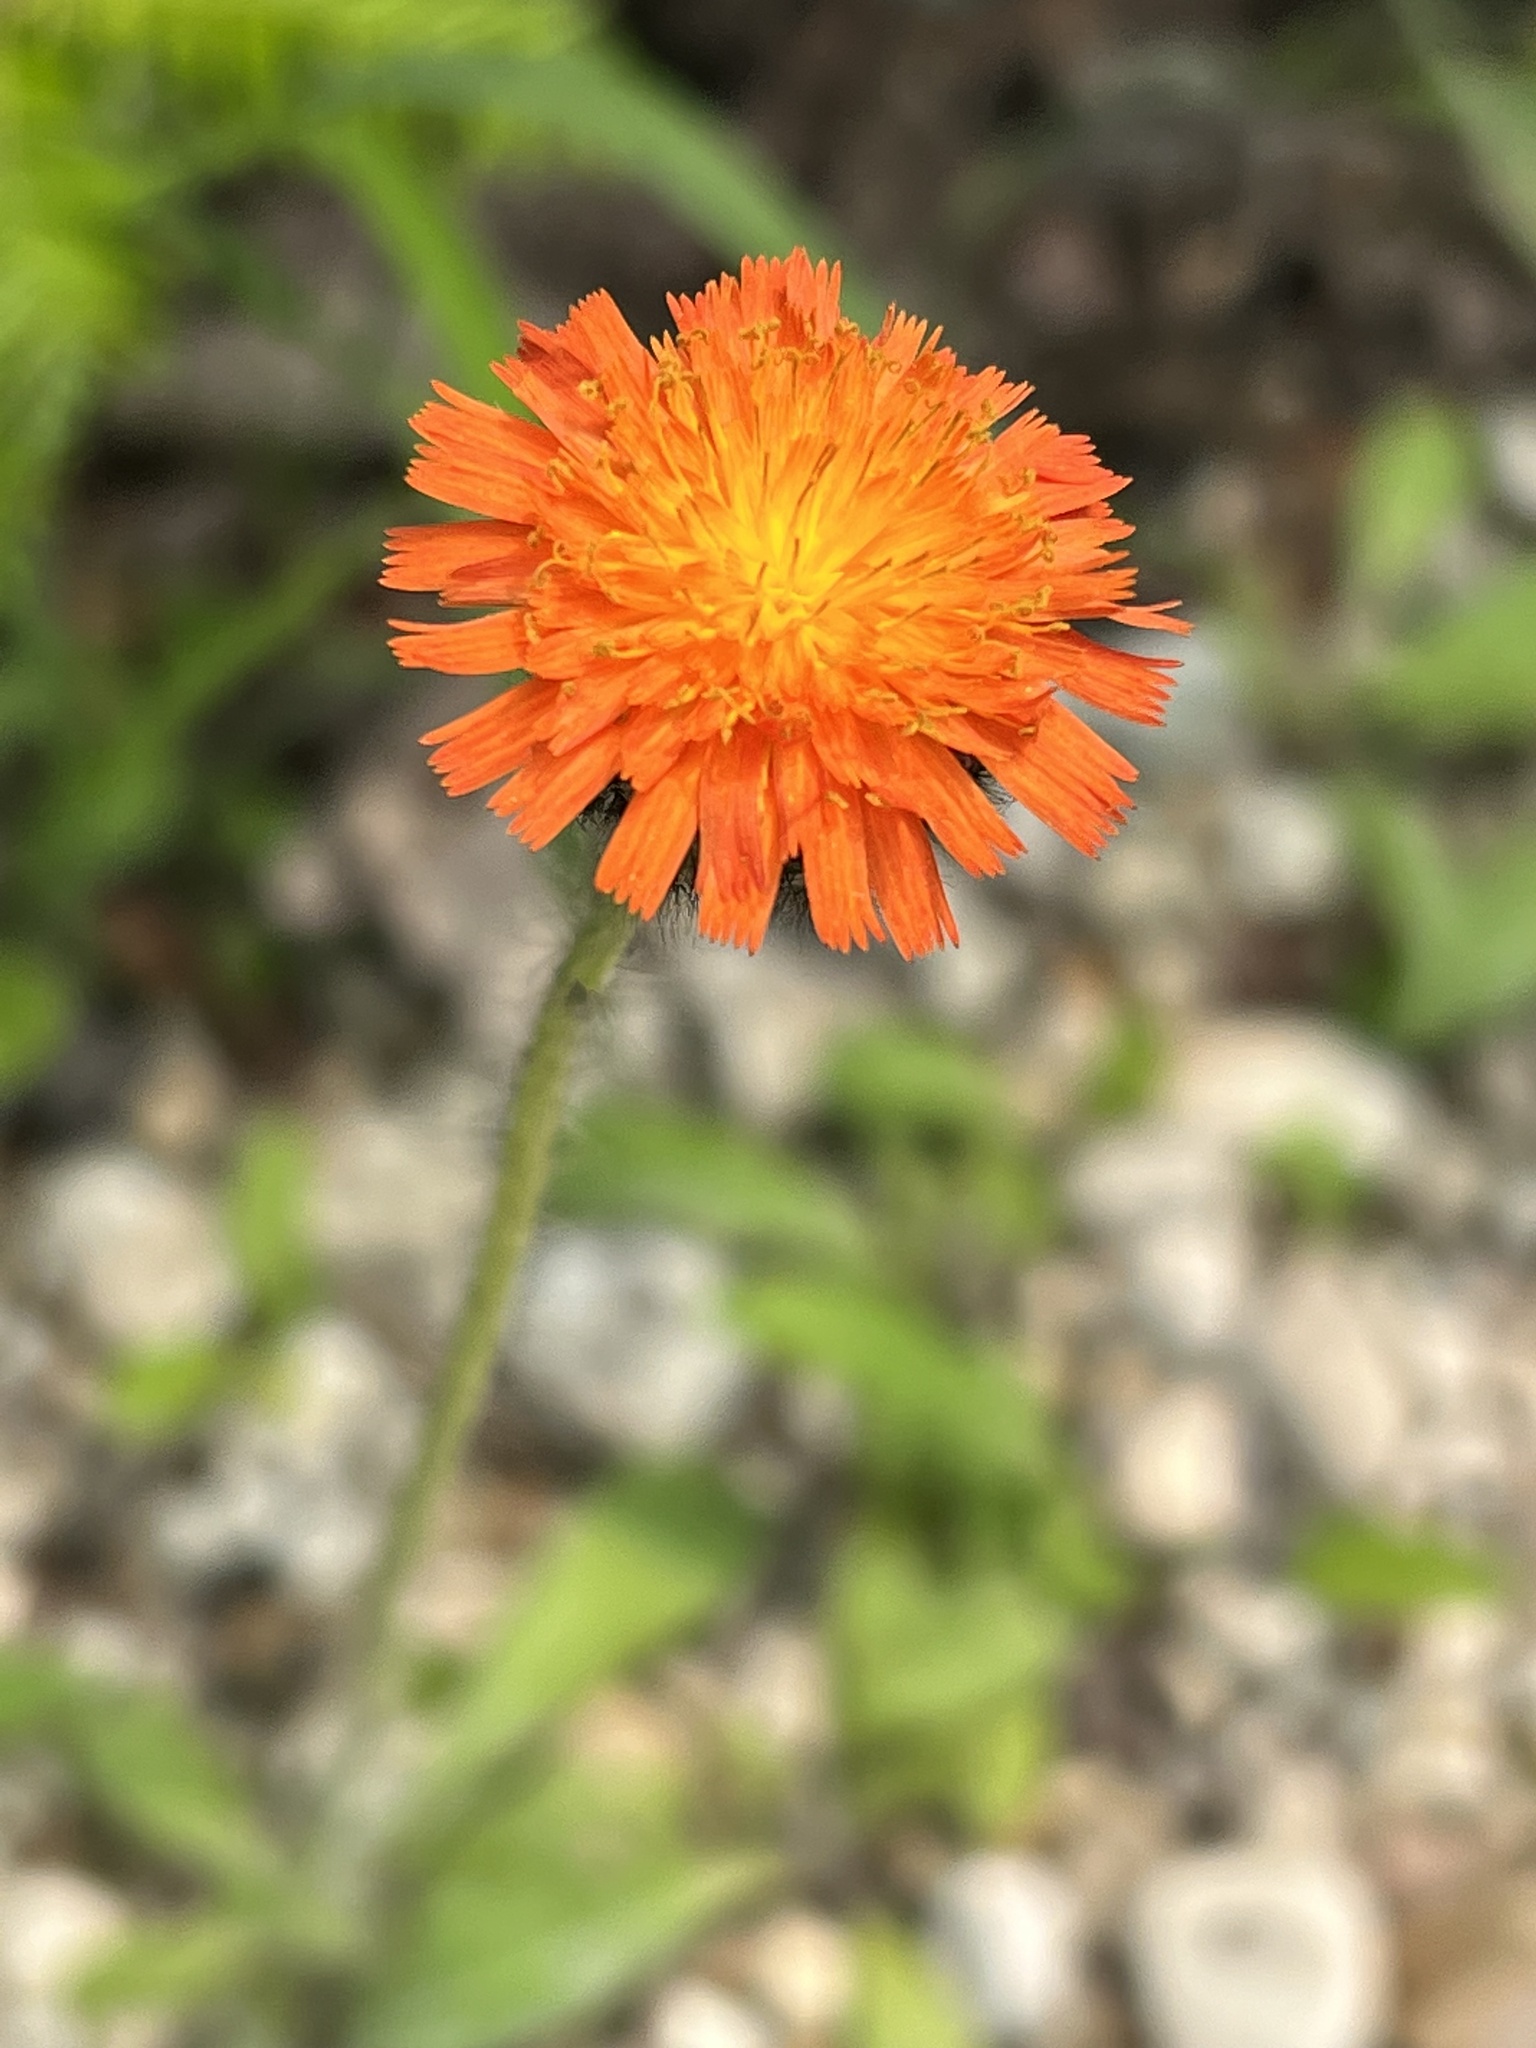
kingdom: Plantae
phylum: Tracheophyta
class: Magnoliopsida
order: Asterales
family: Asteraceae
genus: Pilosella
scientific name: Pilosella aurantiaca
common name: Fox-and-cubs
